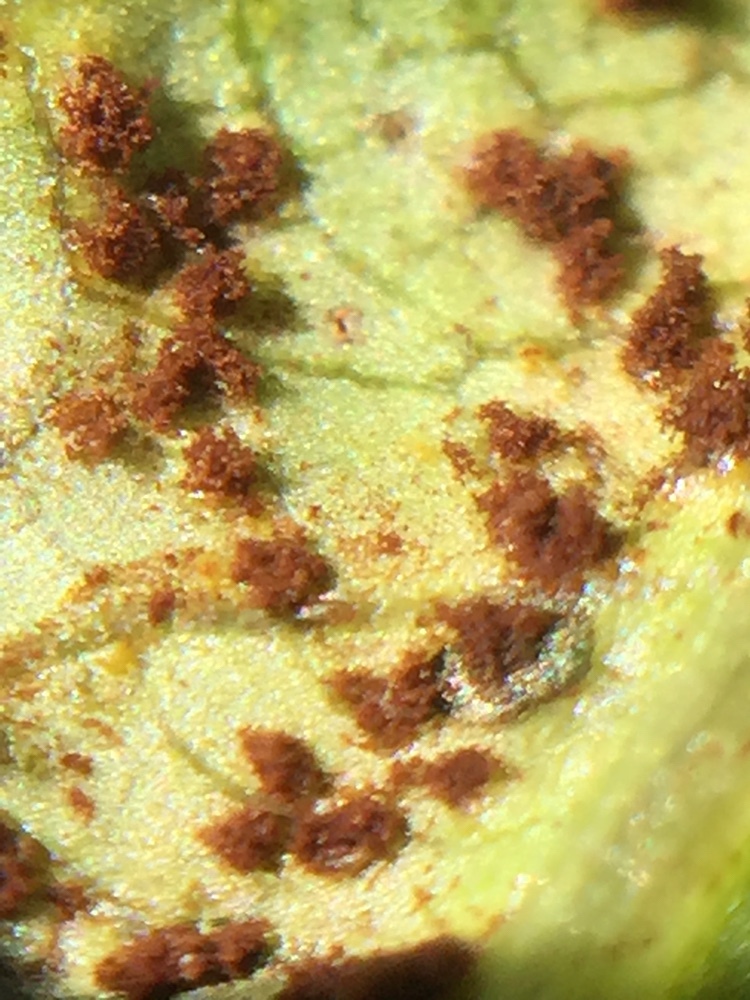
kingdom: Fungi
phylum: Basidiomycota
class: Pucciniomycetes
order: Pucciniales
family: Pucciniaceae
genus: Uromyces
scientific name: Uromyces bidenticola
